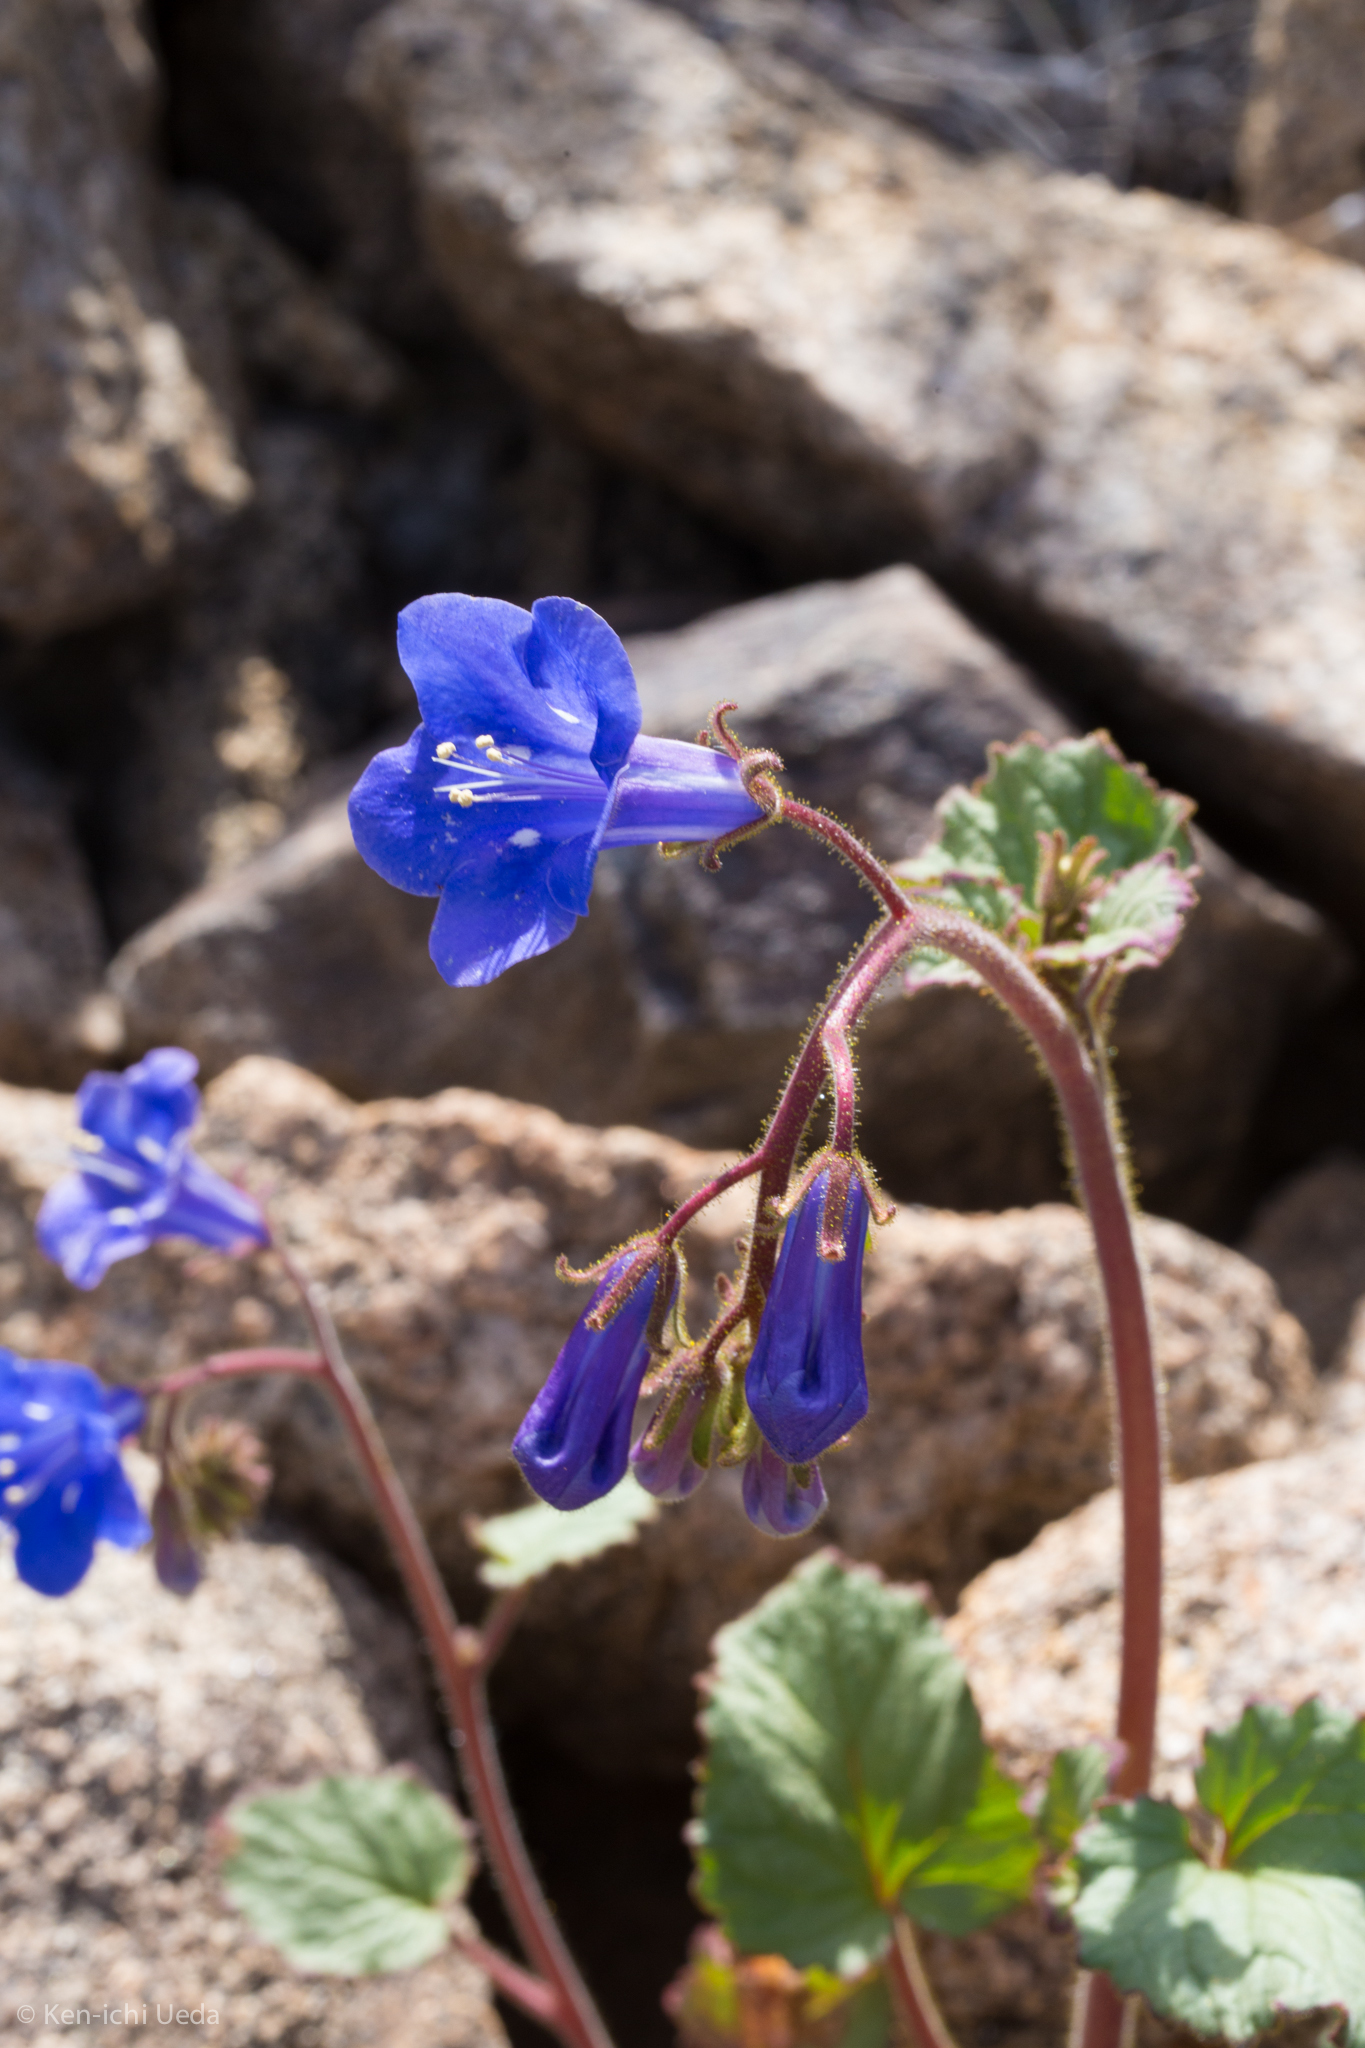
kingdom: Plantae
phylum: Tracheophyta
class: Magnoliopsida
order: Boraginales
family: Hydrophyllaceae
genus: Phacelia
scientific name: Phacelia campanularia
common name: California bluebell
